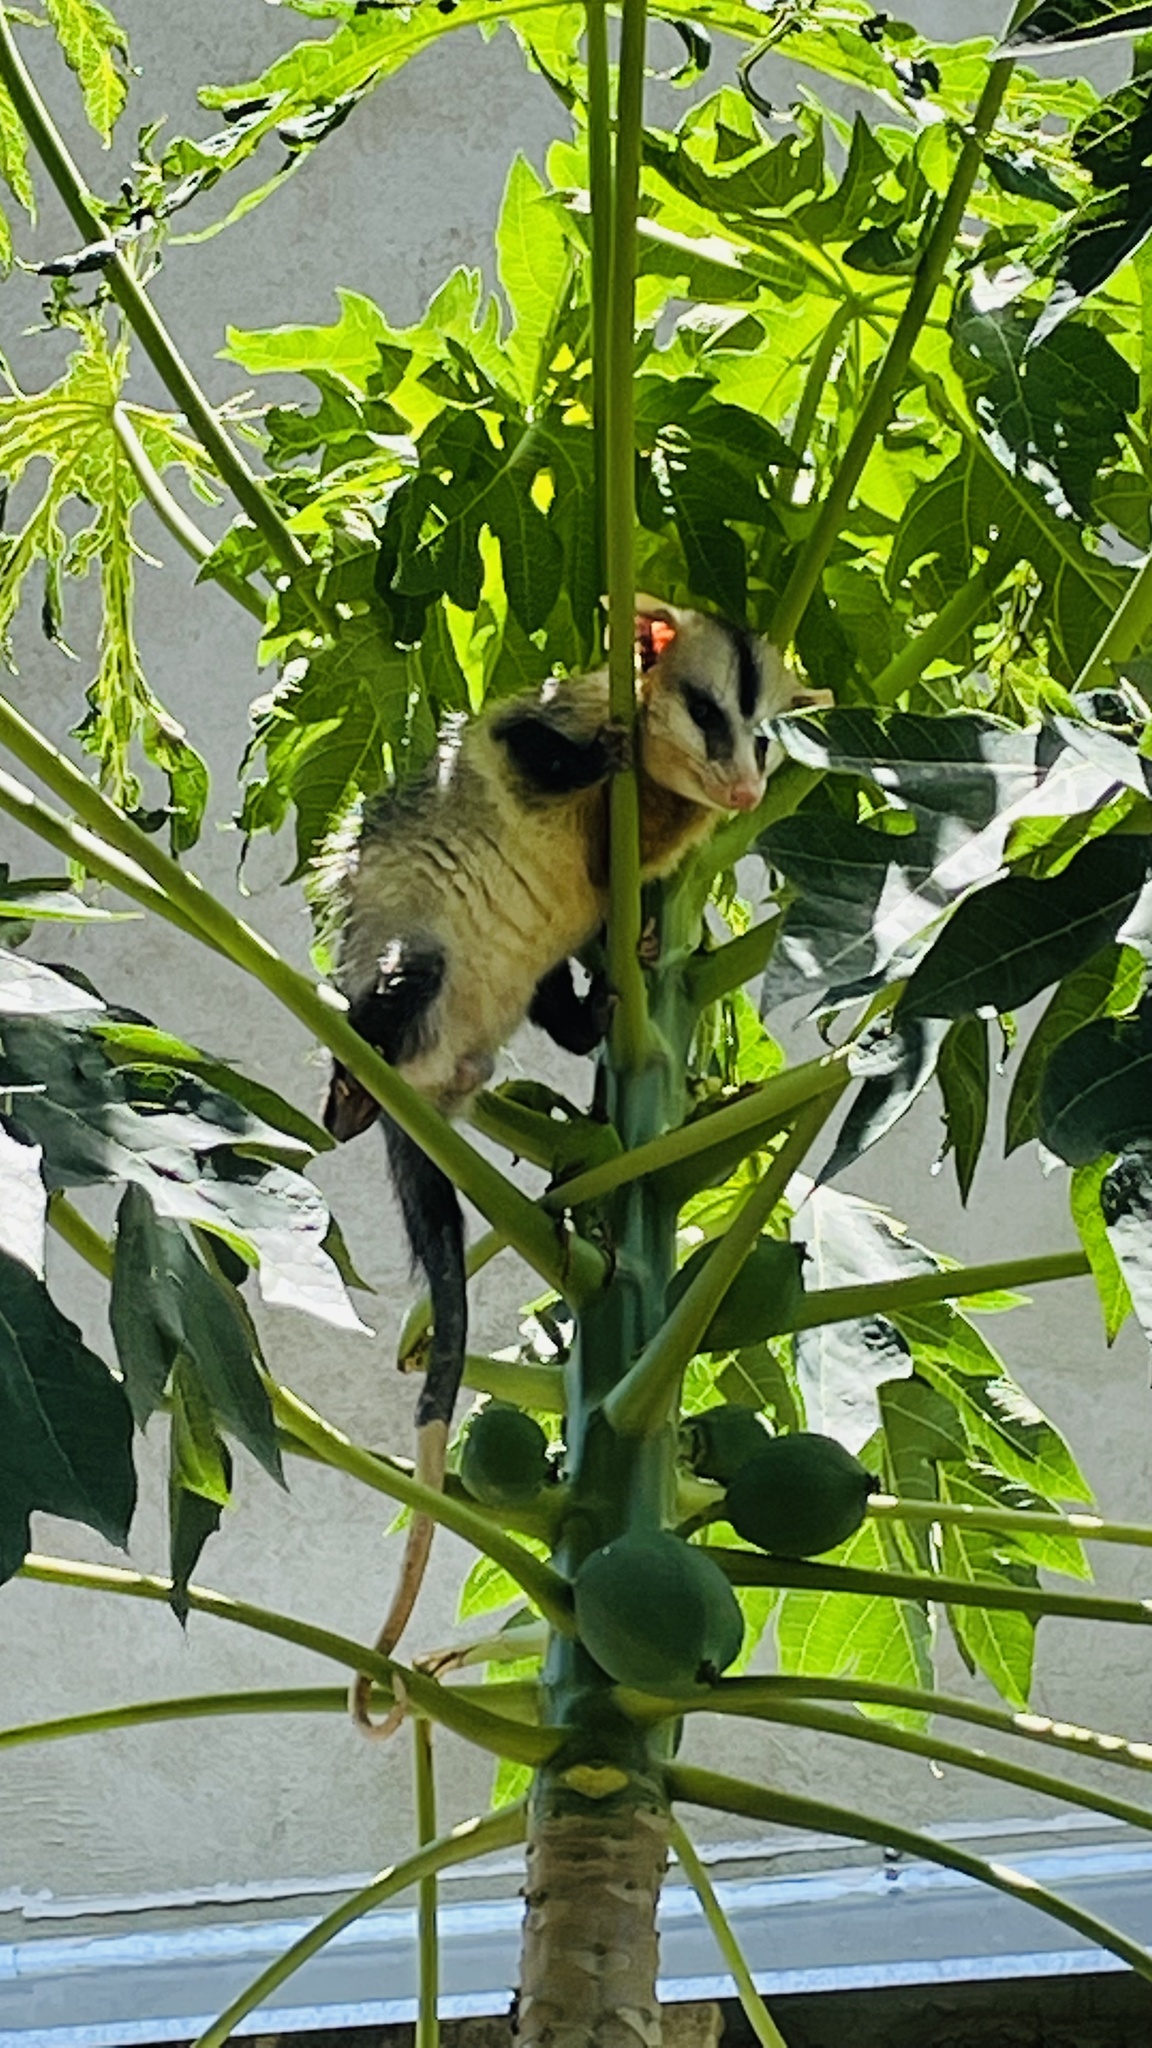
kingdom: Animalia
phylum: Chordata
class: Mammalia
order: Didelphimorphia
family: Didelphidae
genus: Didelphis
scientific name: Didelphis albiventris
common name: White-eared opossum
